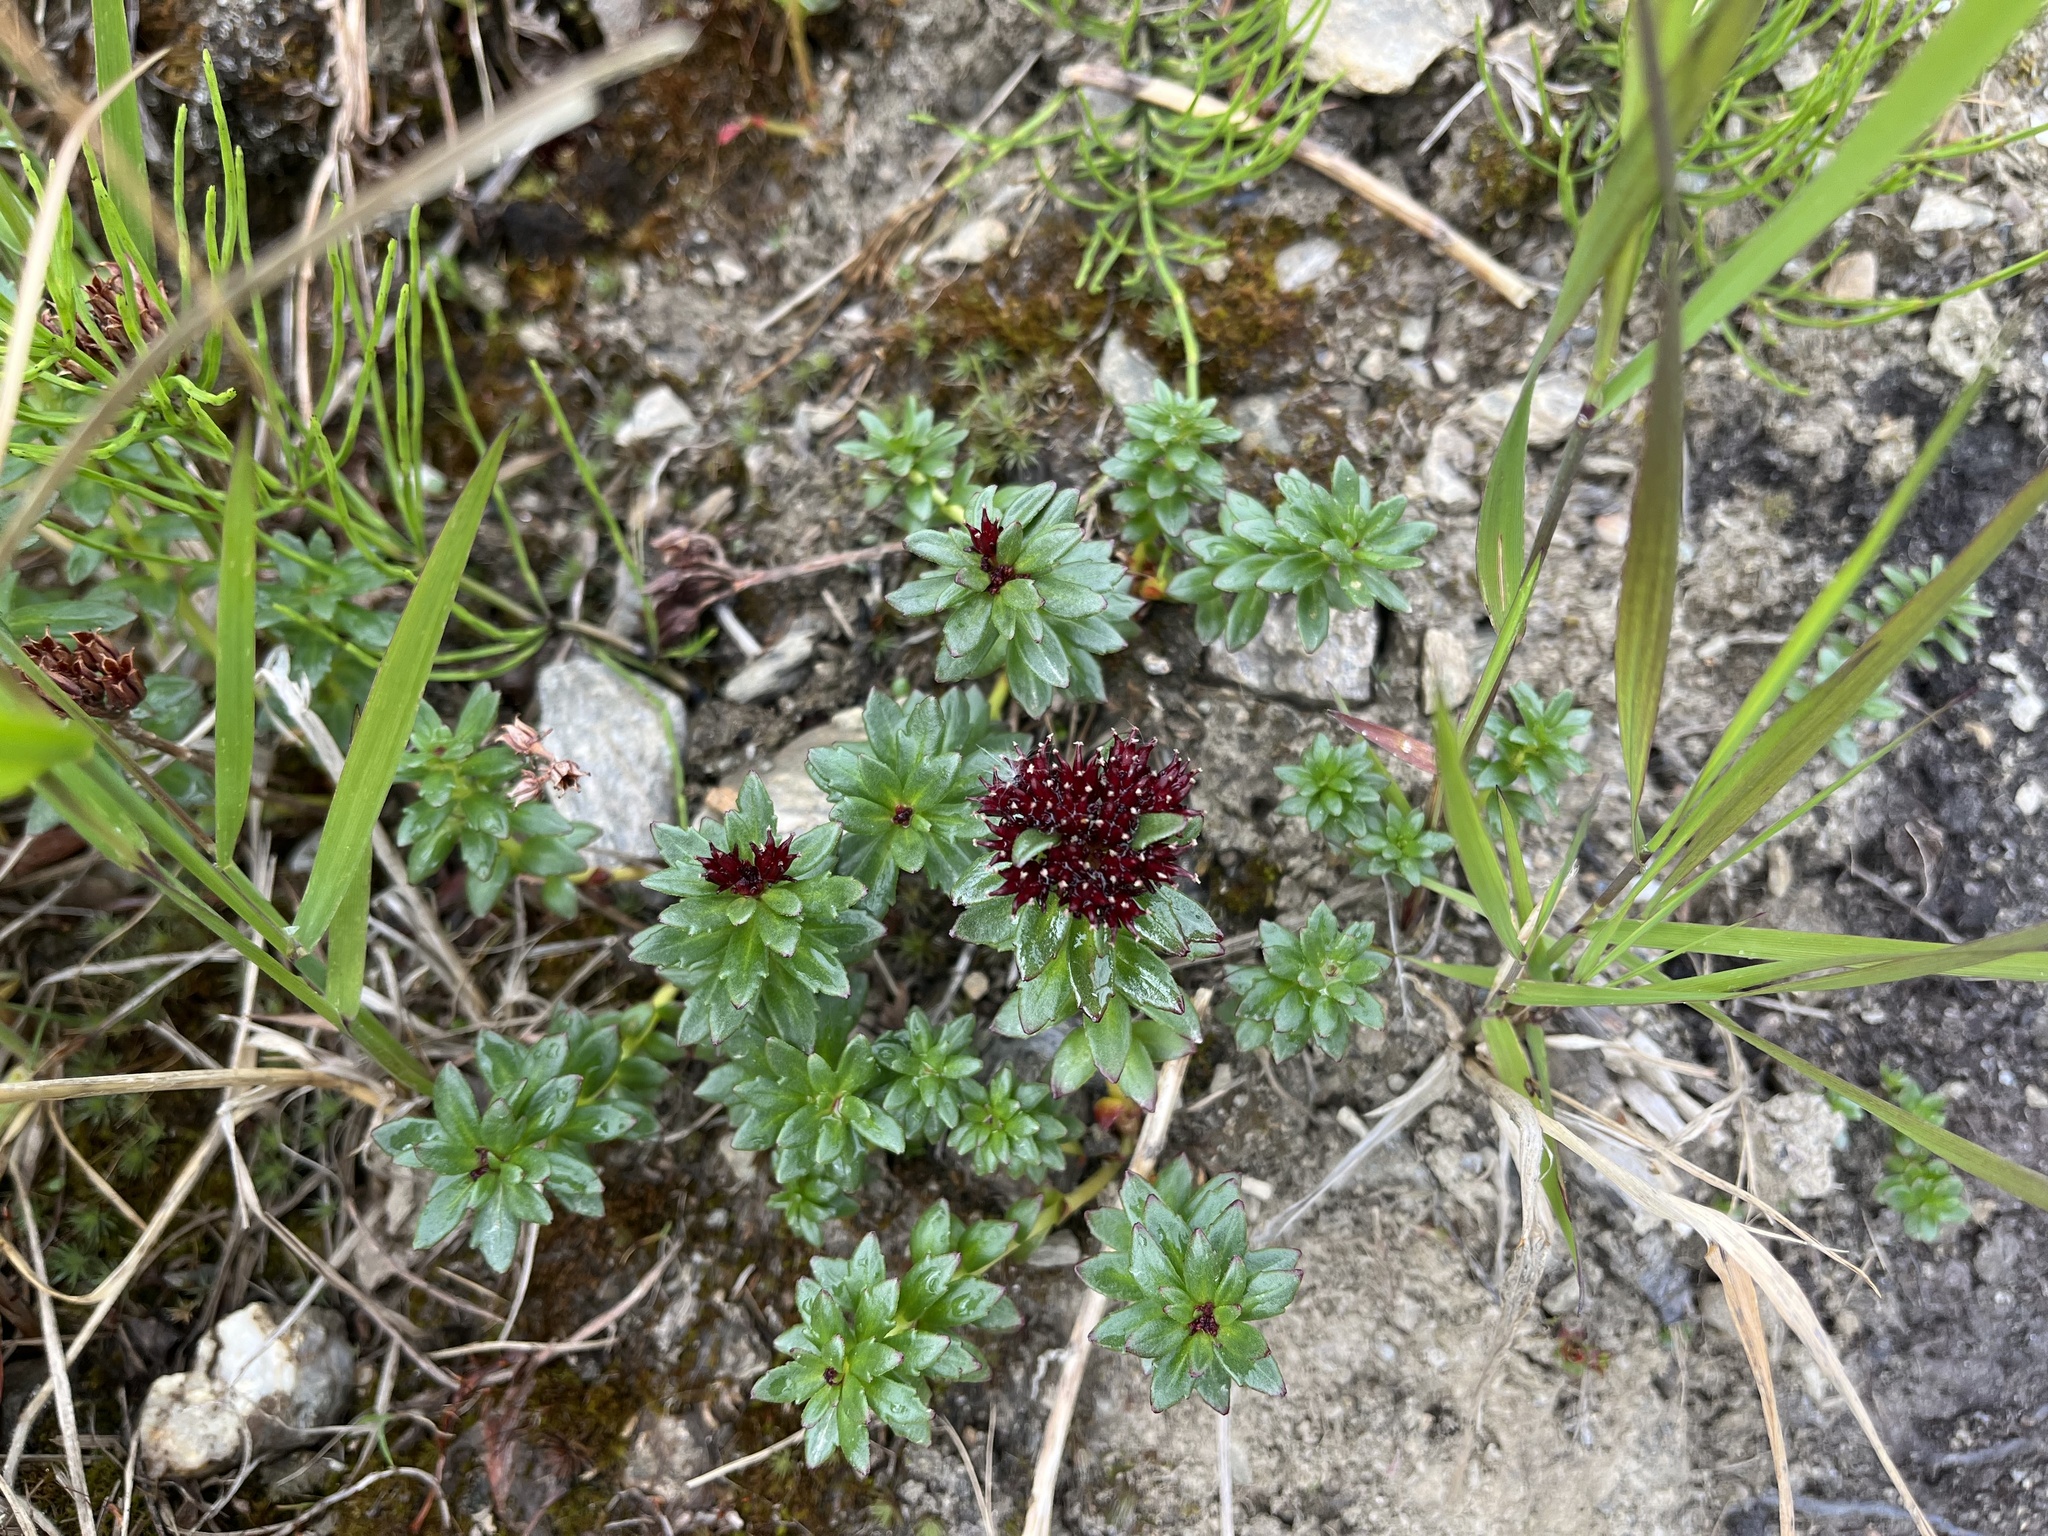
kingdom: Plantae
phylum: Tracheophyta
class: Magnoliopsida
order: Saxifragales
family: Crassulaceae
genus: Rhodiola
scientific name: Rhodiola integrifolia
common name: Western roseroot
